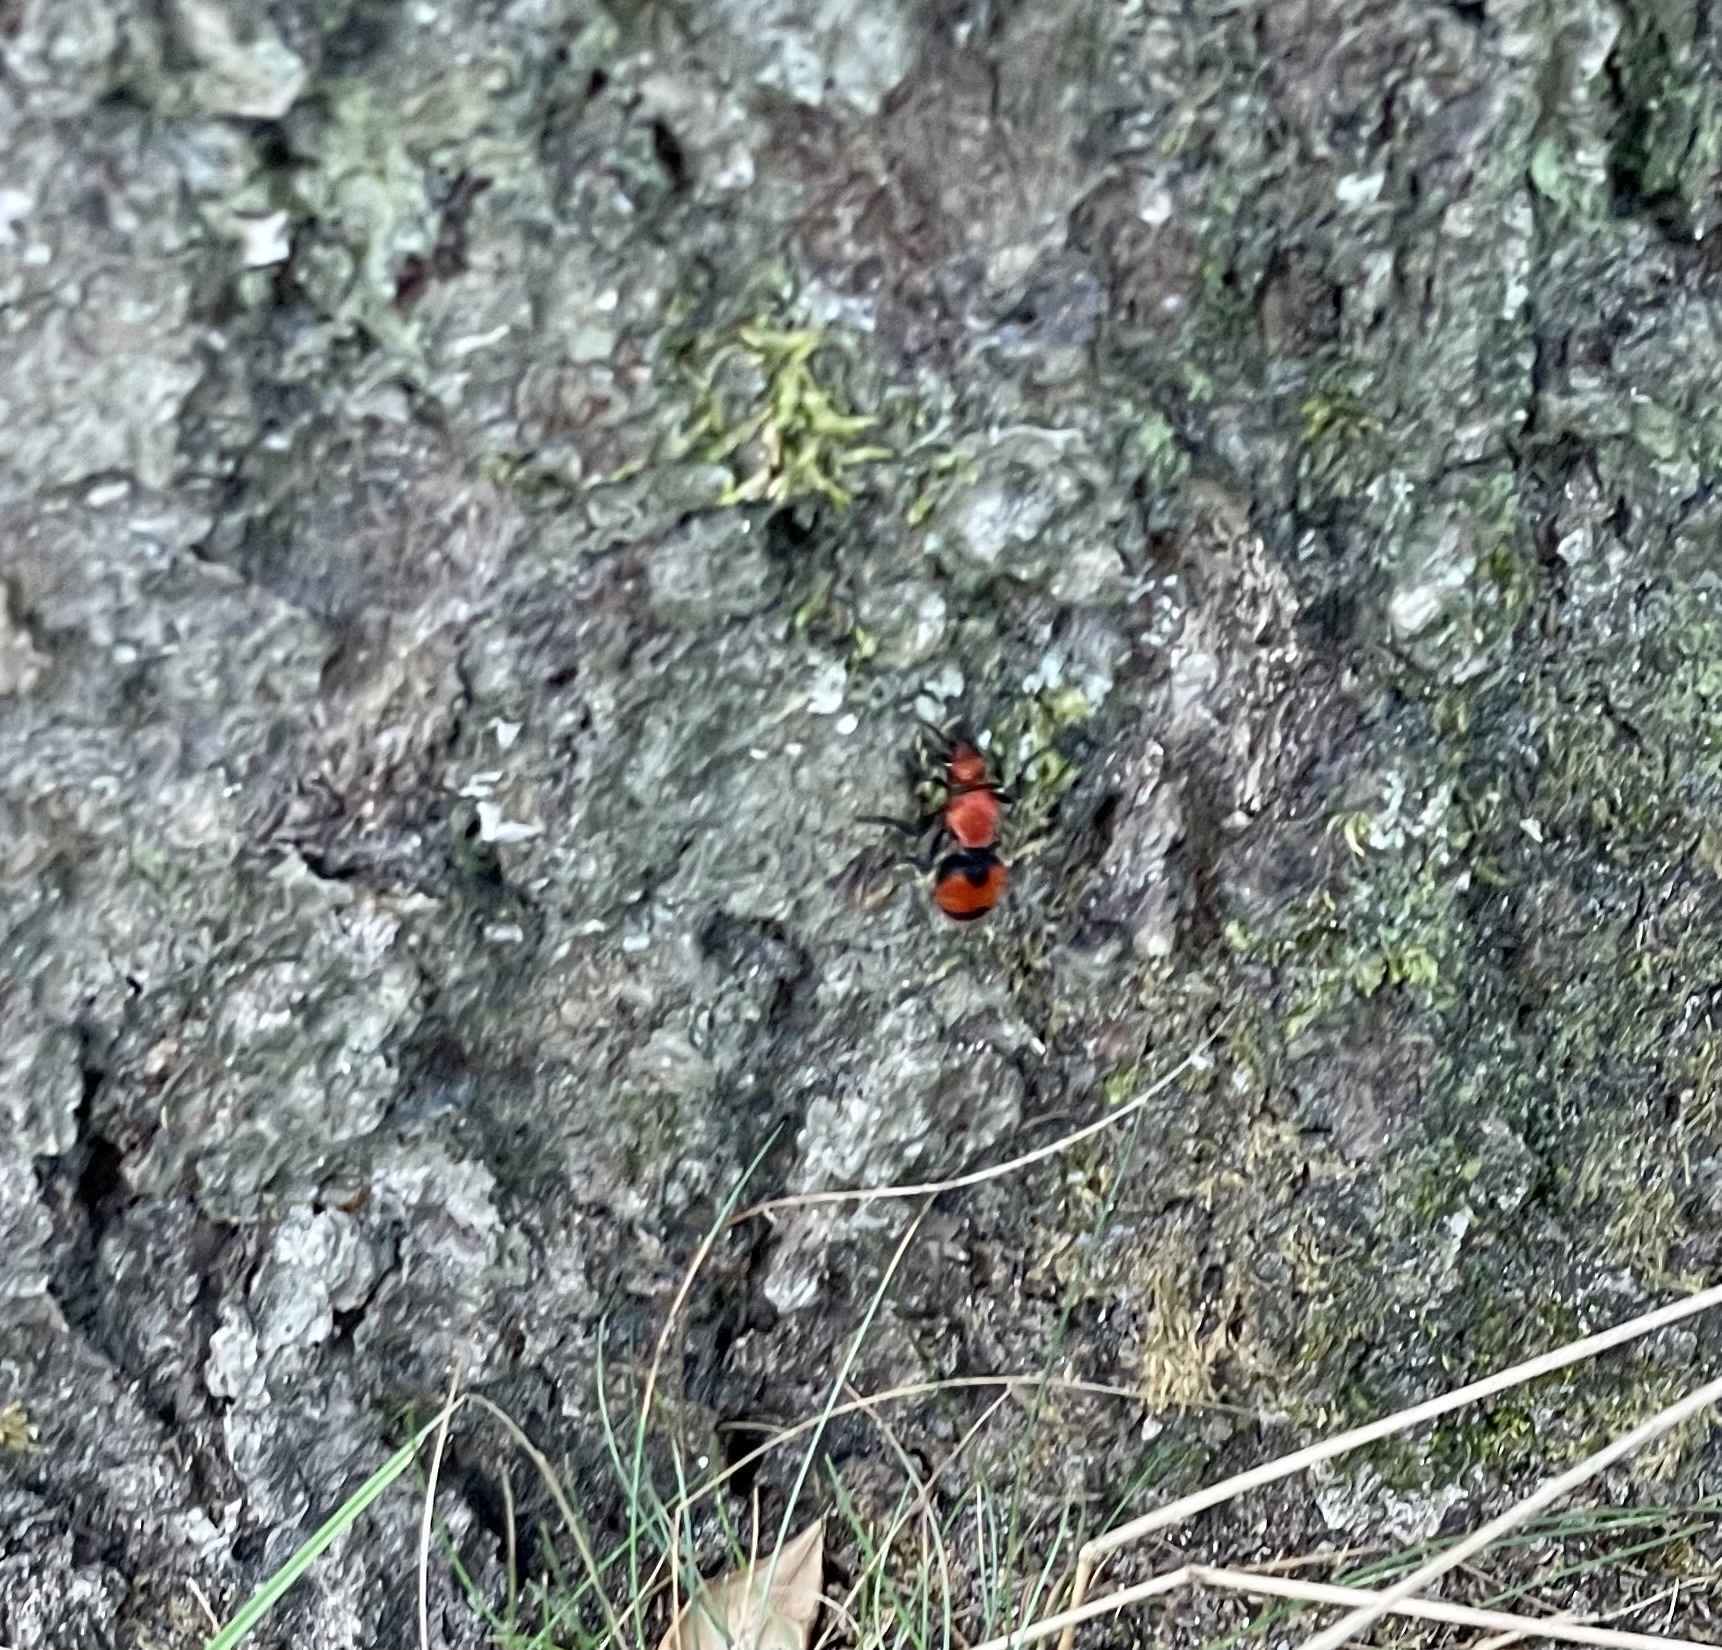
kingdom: Animalia
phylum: Arthropoda
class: Insecta
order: Hymenoptera
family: Mutillidae
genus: Dasymutilla
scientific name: Dasymutilla occidentalis
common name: Common eastern velvet ant
